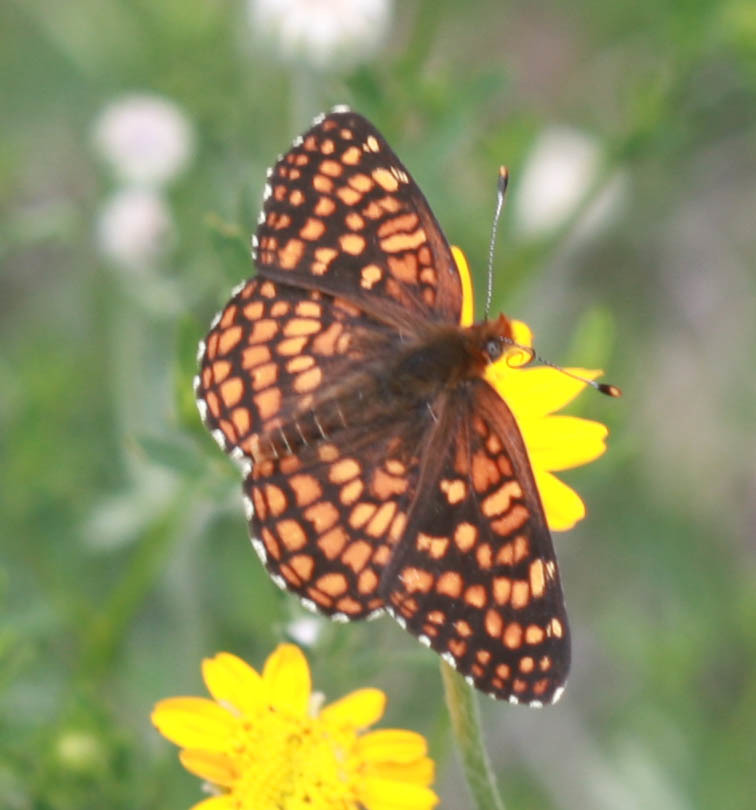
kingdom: Animalia
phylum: Arthropoda
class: Insecta
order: Lepidoptera
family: Nymphalidae
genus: Chlosyne
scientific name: Chlosyne palla
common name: Northern checkerspot
